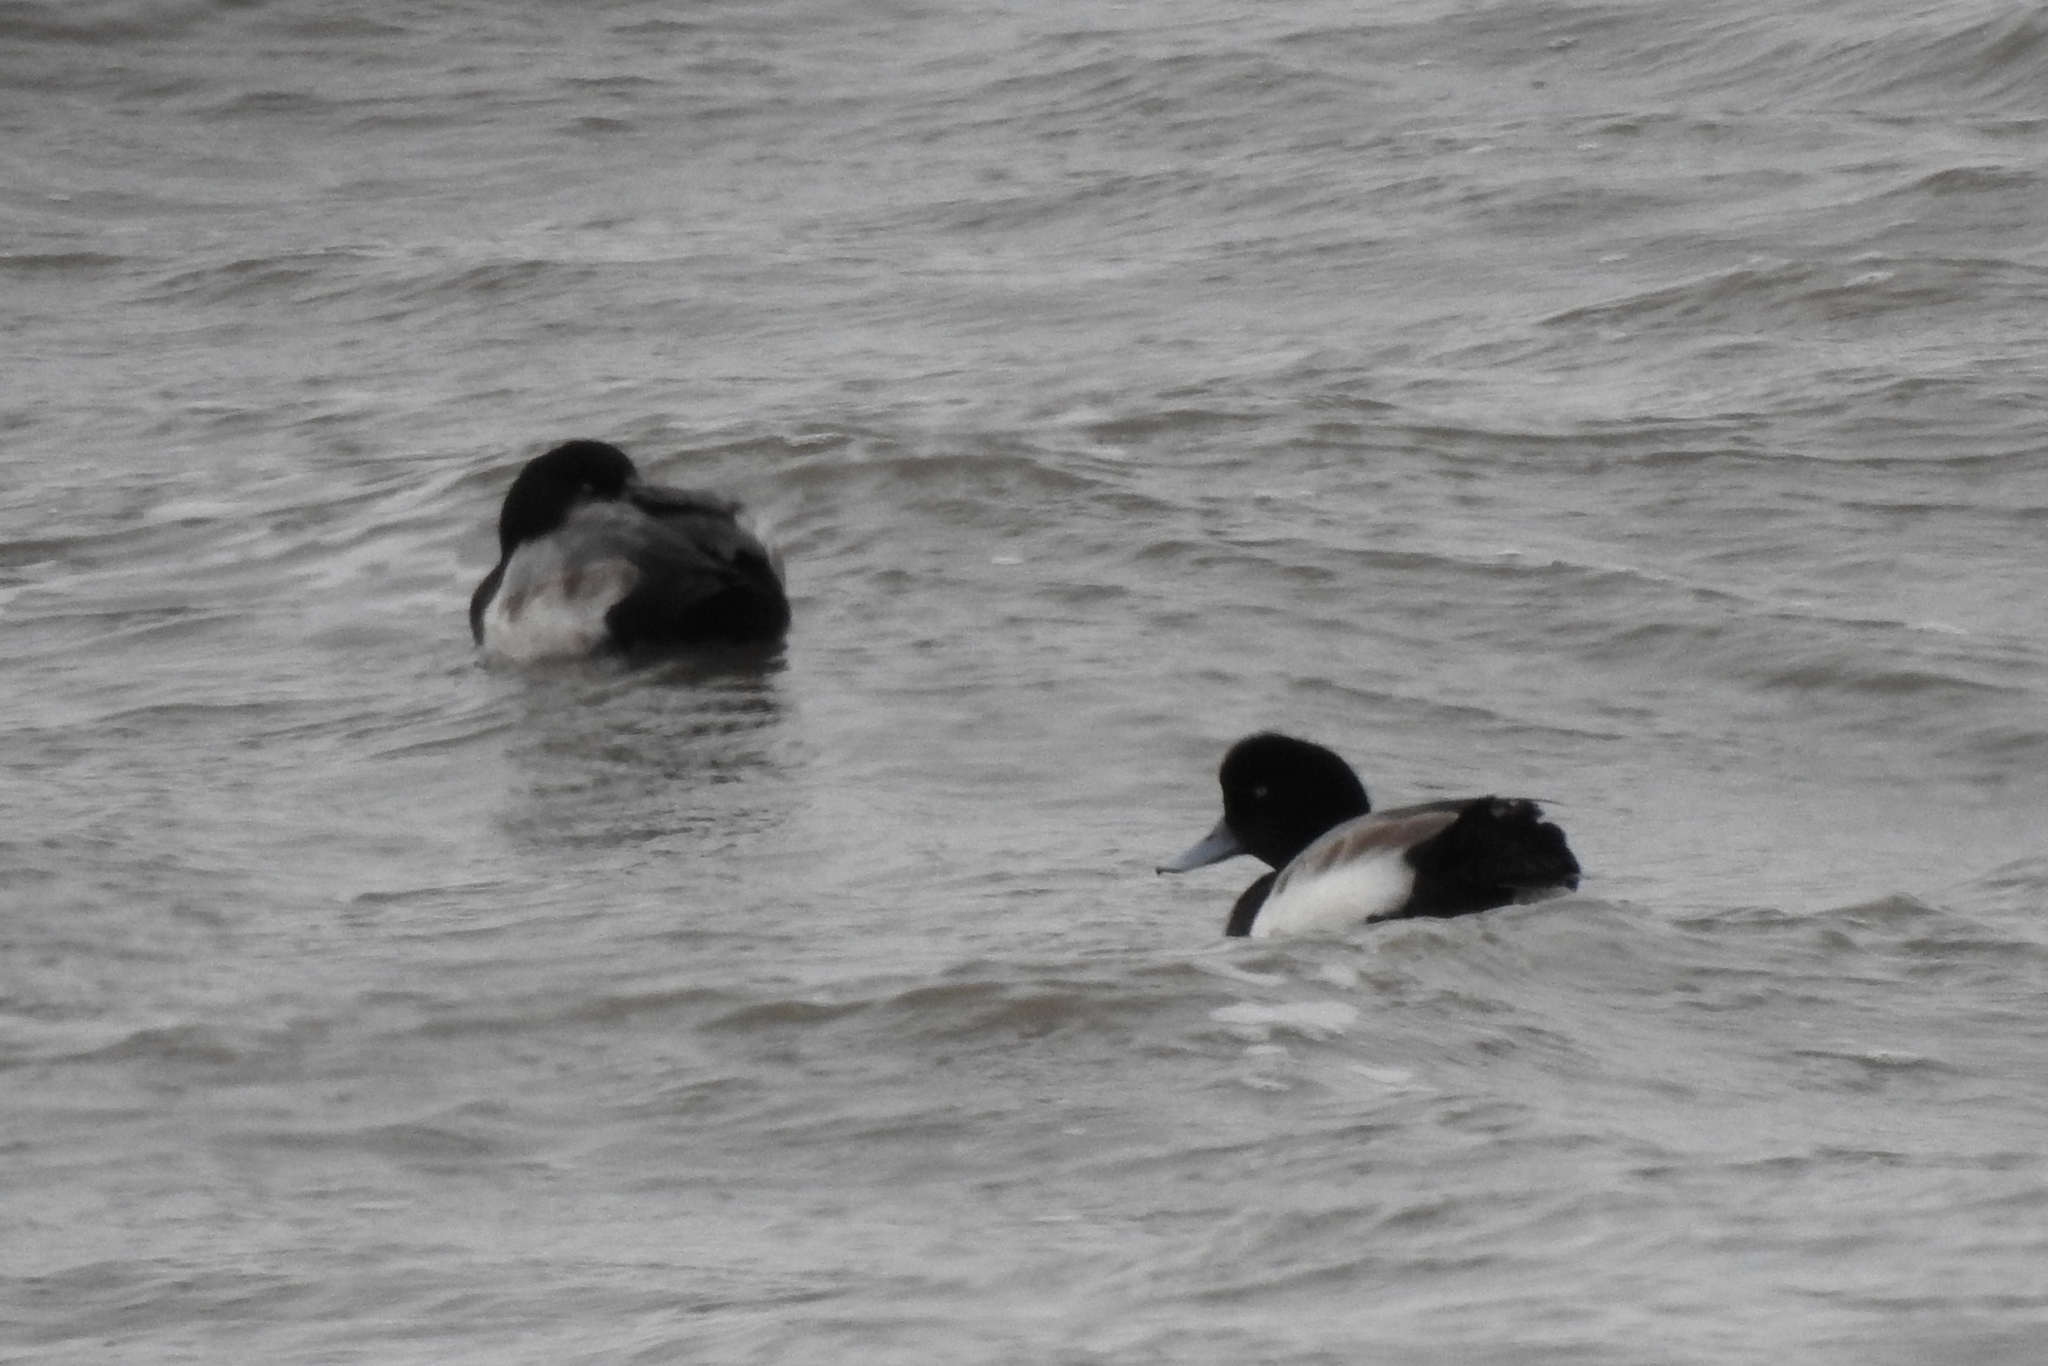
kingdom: Animalia
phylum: Chordata
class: Aves
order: Anseriformes
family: Anatidae
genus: Aythya
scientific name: Aythya marila
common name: Greater scaup
